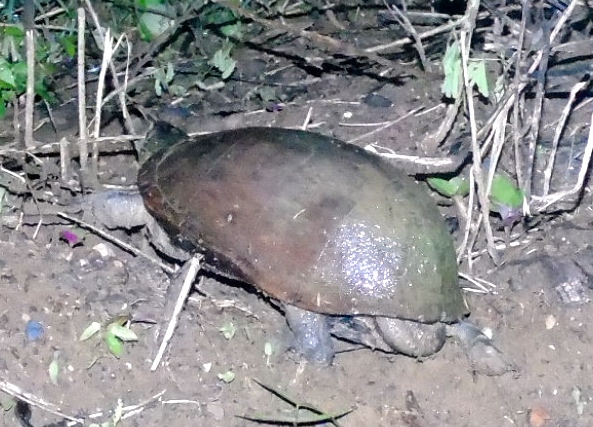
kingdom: Animalia
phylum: Chordata
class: Testudines
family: Kinosternidae
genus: Kinosternon
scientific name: Kinosternon integrum
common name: Mexican mud turtle
